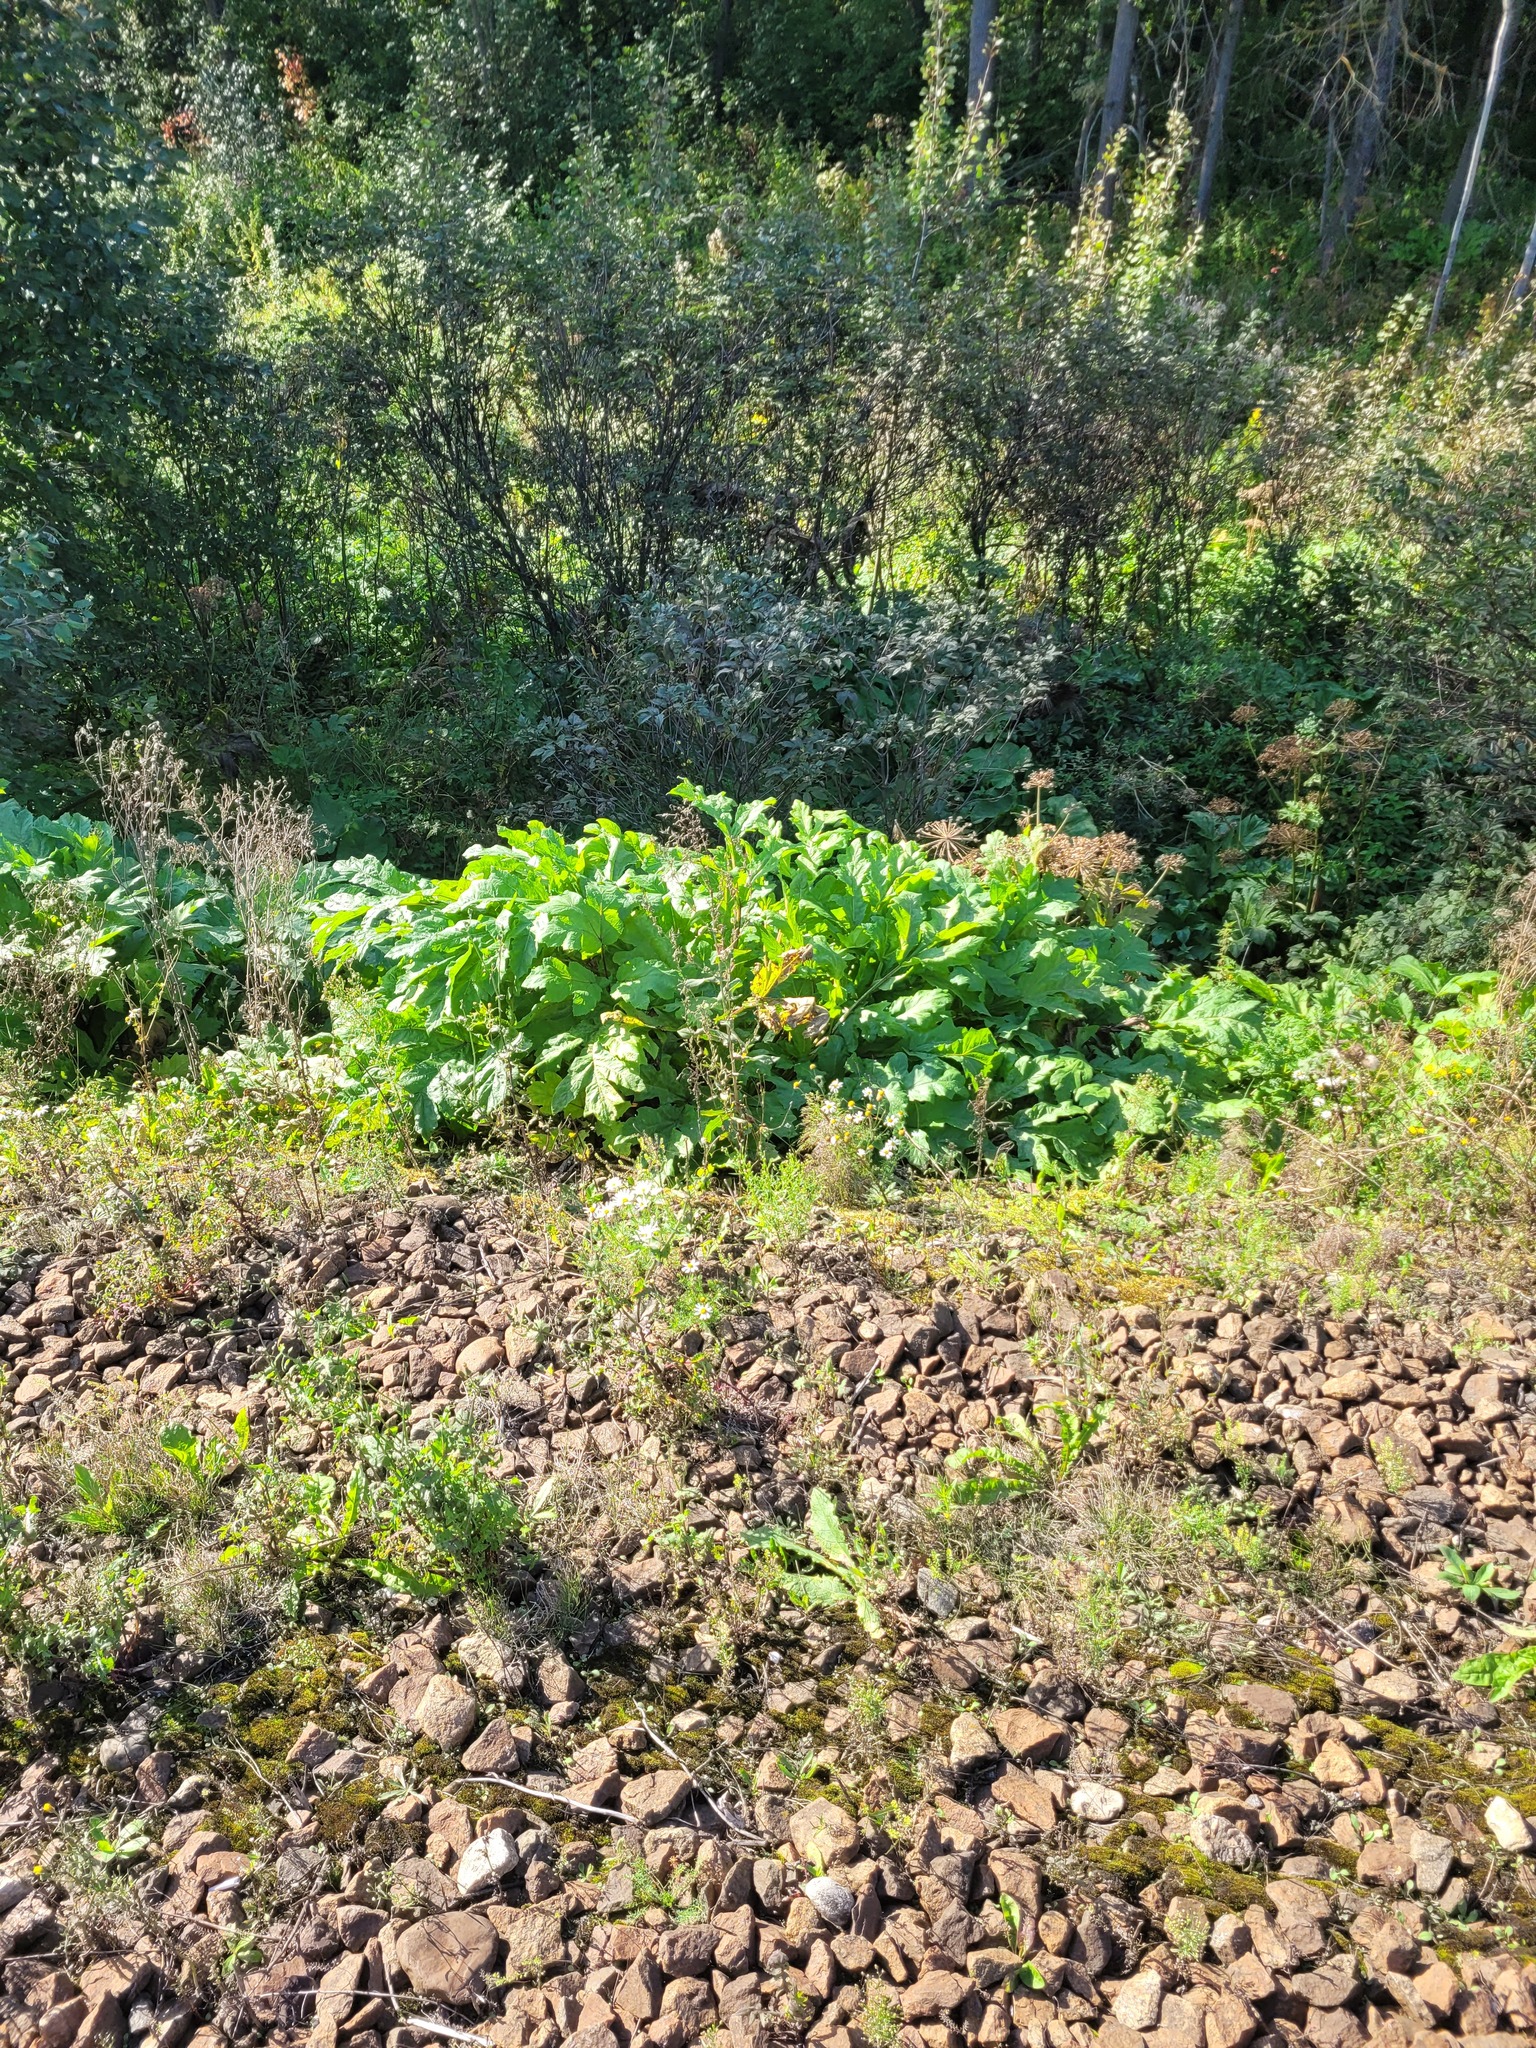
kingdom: Plantae
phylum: Tracheophyta
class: Magnoliopsida
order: Apiales
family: Apiaceae
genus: Heracleum
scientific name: Heracleum sosnowskyi
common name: Sosnowsky's hogweed
